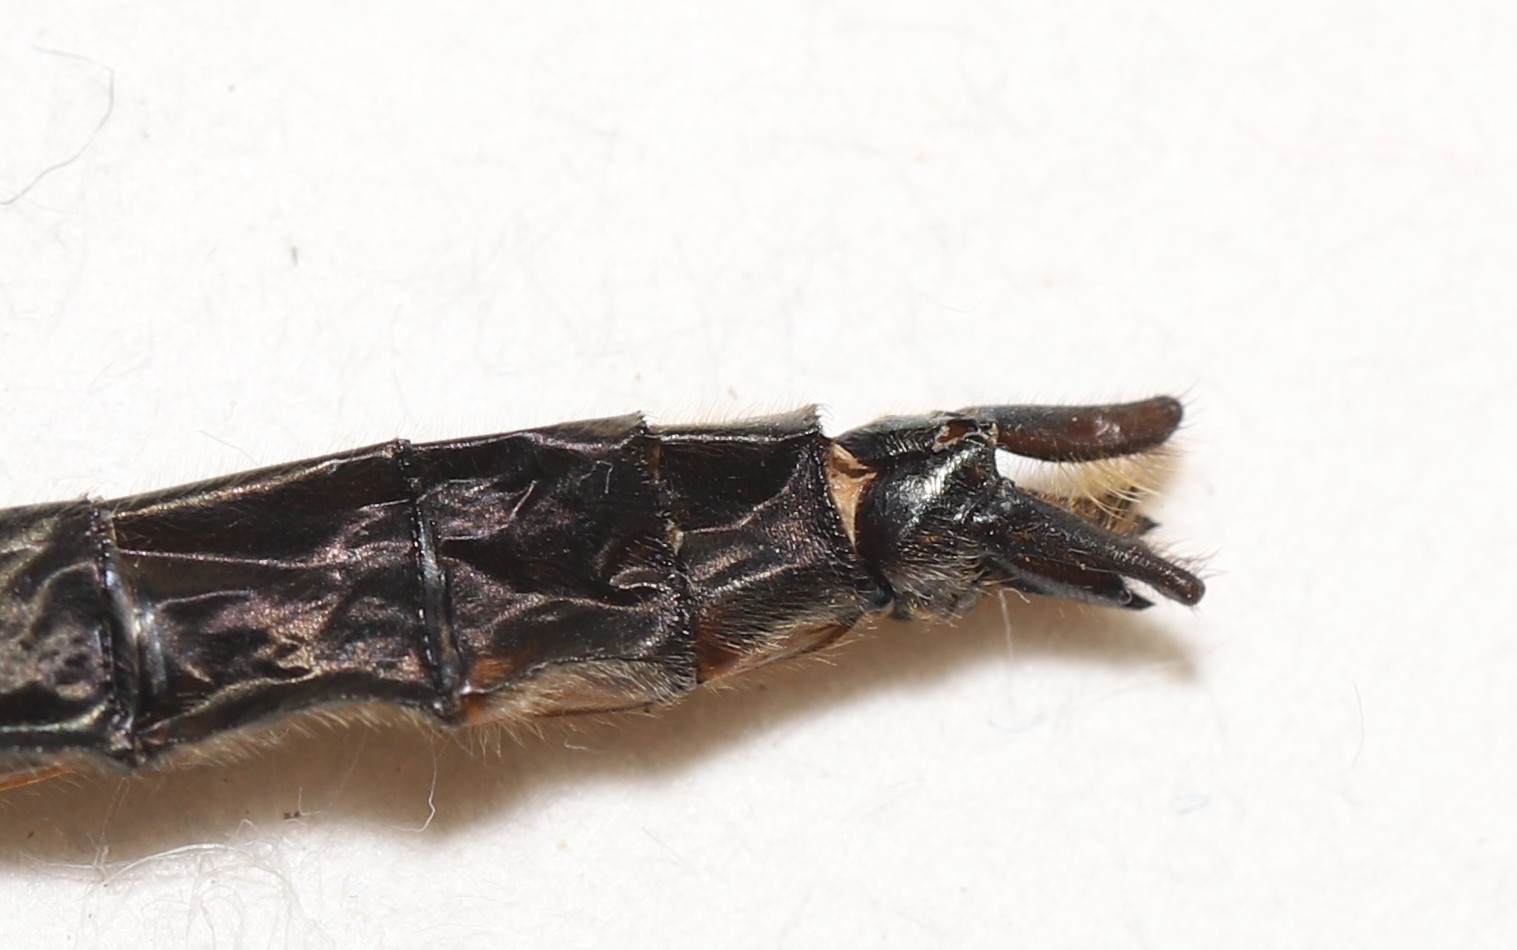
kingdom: Animalia
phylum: Arthropoda
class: Insecta
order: Odonata
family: Corduliidae
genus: Cordulia
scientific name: Cordulia shurtleffii
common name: American emerald
